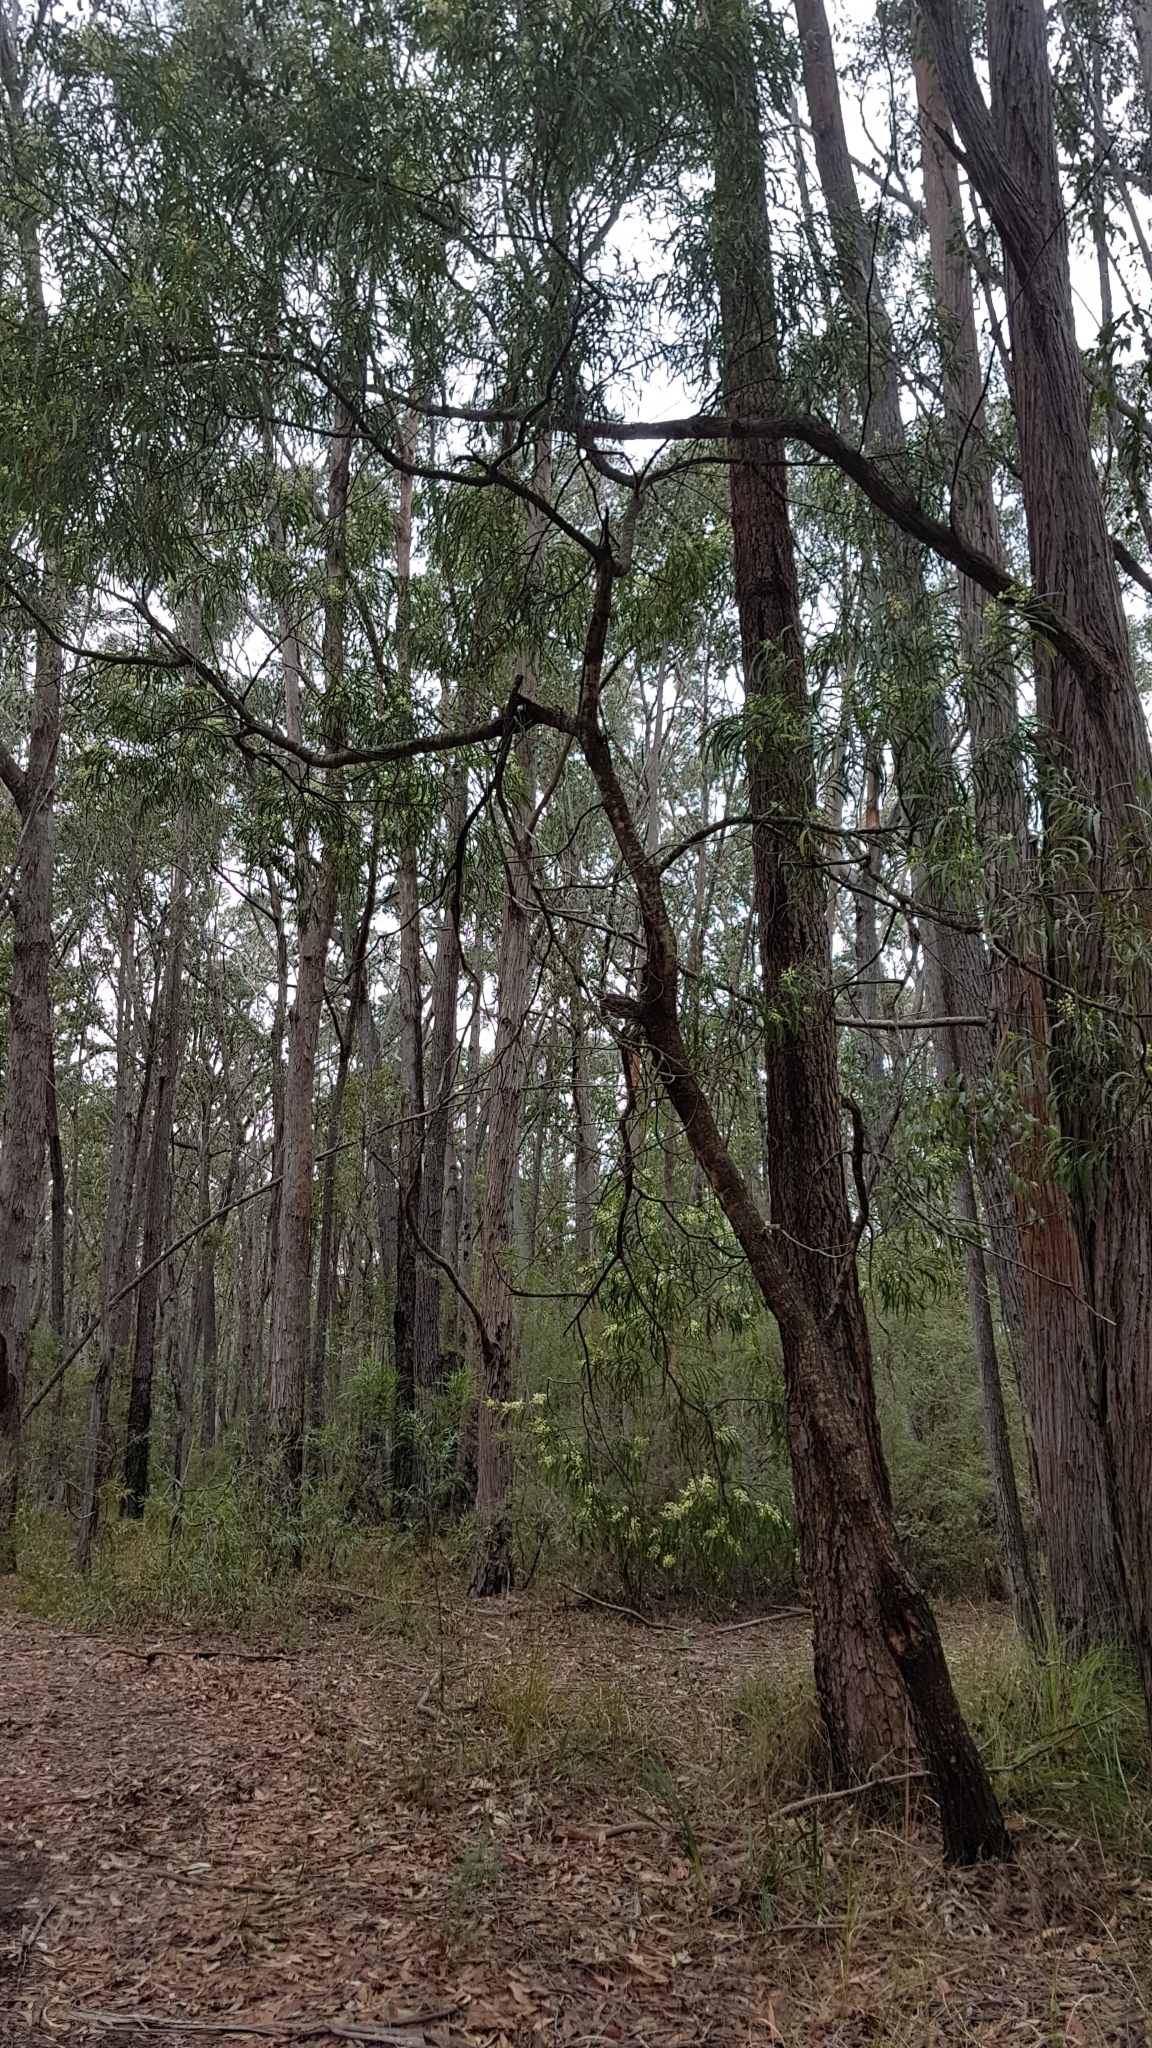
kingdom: Plantae
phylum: Tracheophyta
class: Magnoliopsida
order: Fabales
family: Fabaceae
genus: Acacia
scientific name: Acacia mabellae
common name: Black wattle
